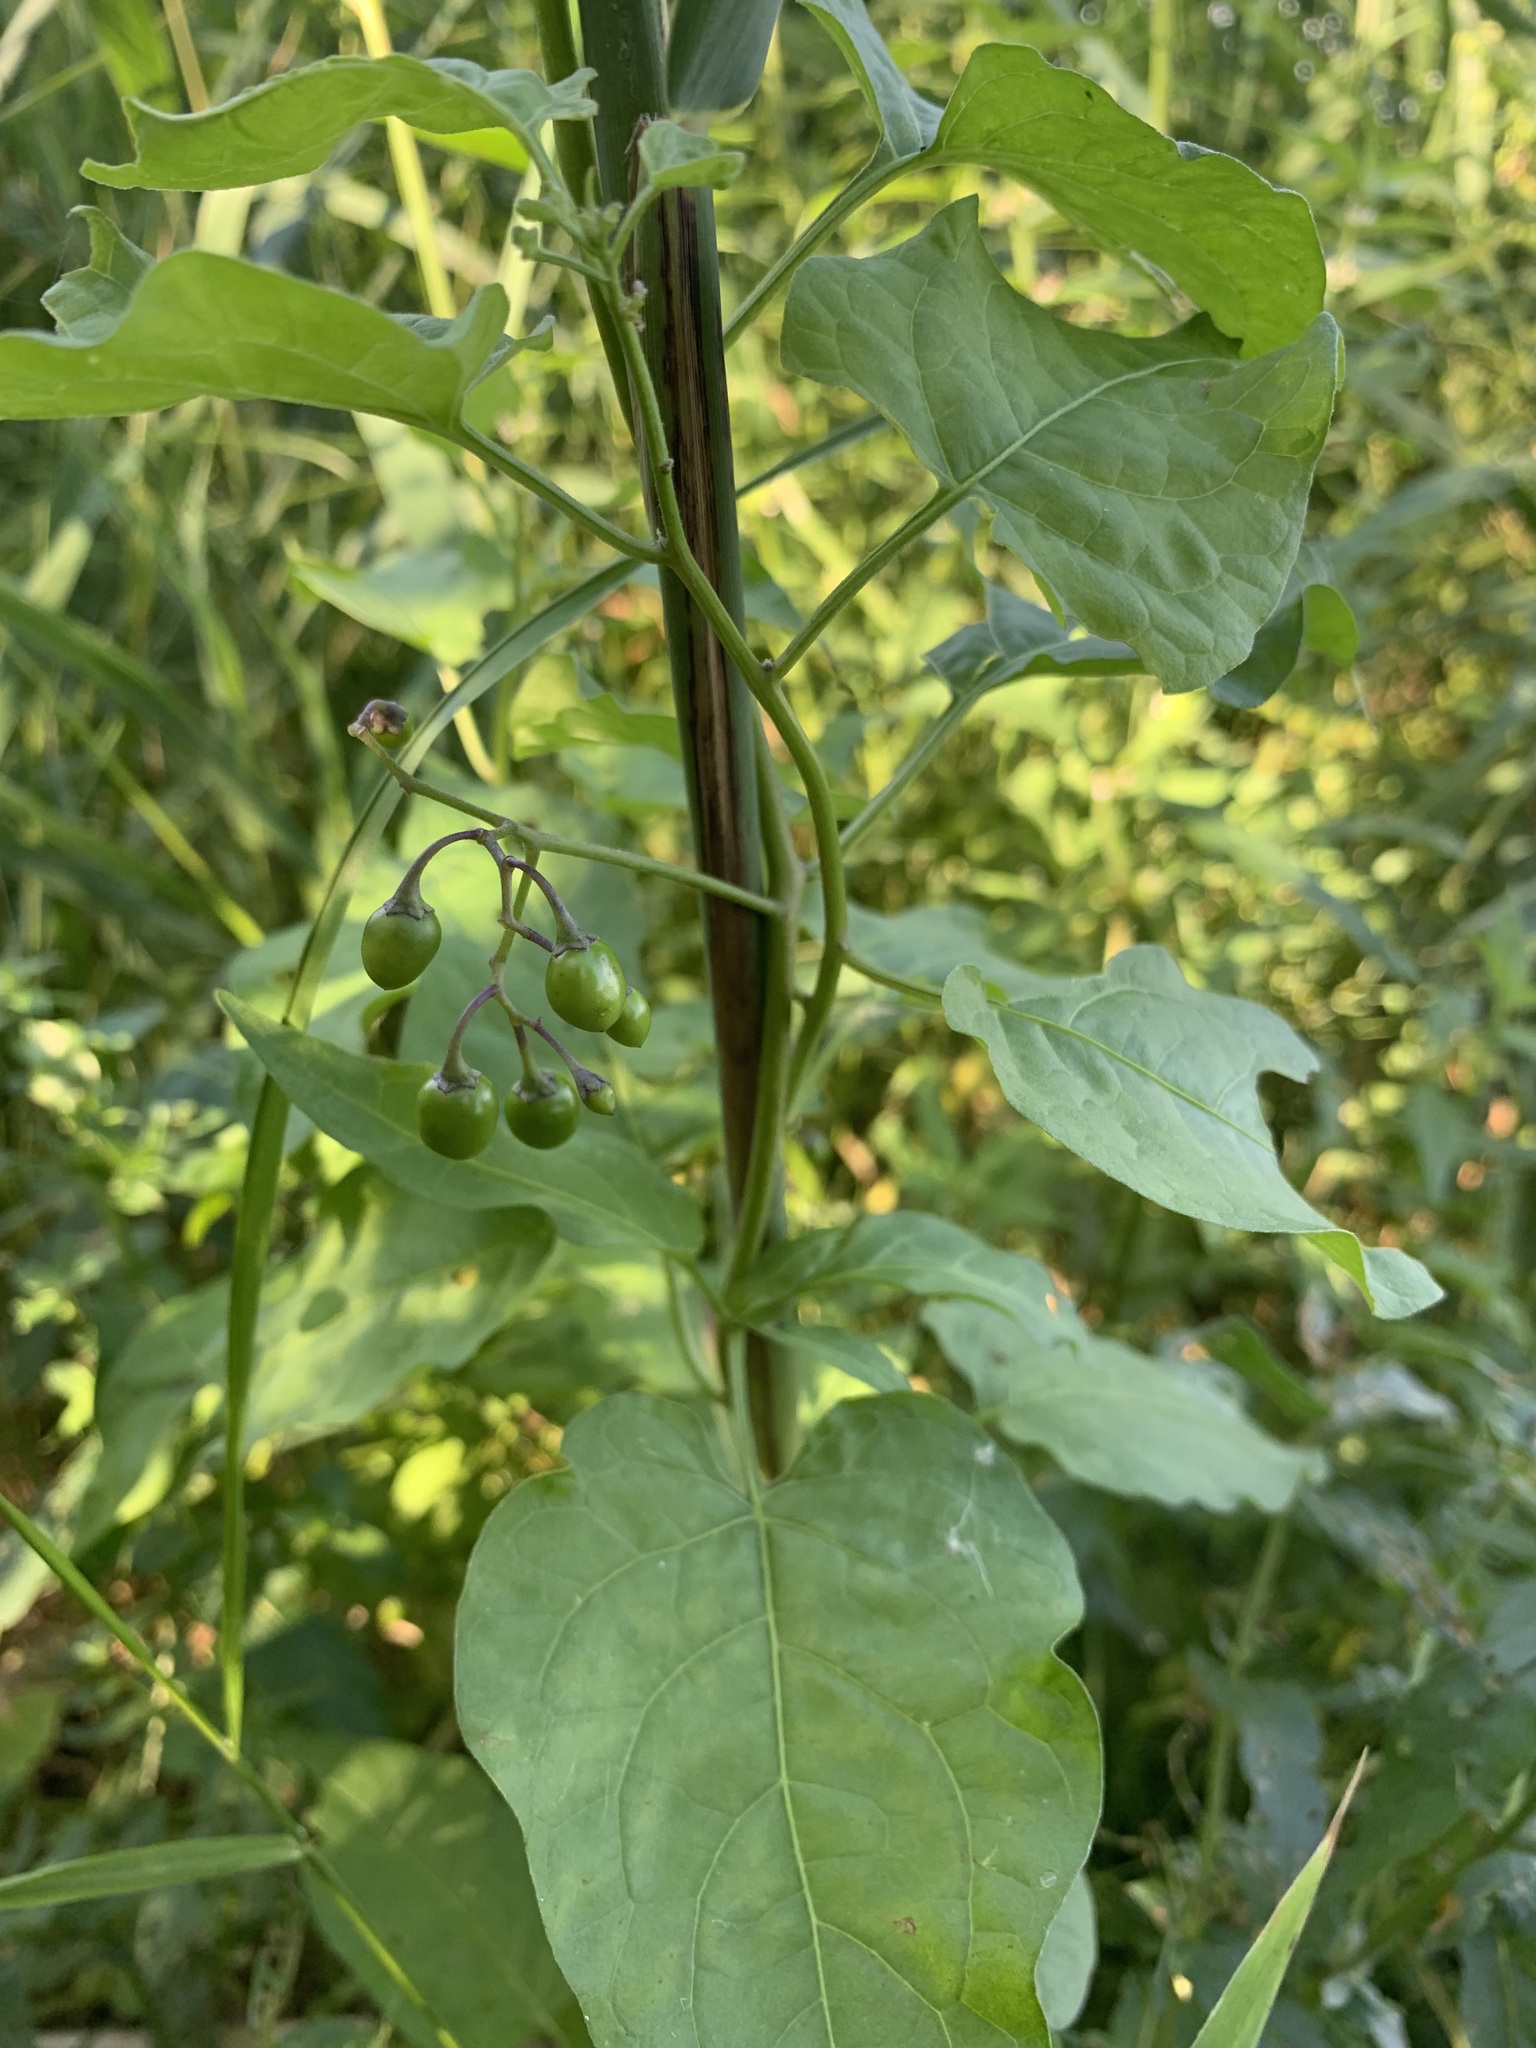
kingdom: Plantae
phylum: Tracheophyta
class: Magnoliopsida
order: Solanales
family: Solanaceae
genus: Solanum
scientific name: Solanum dulcamara
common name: Climbing nightshade
